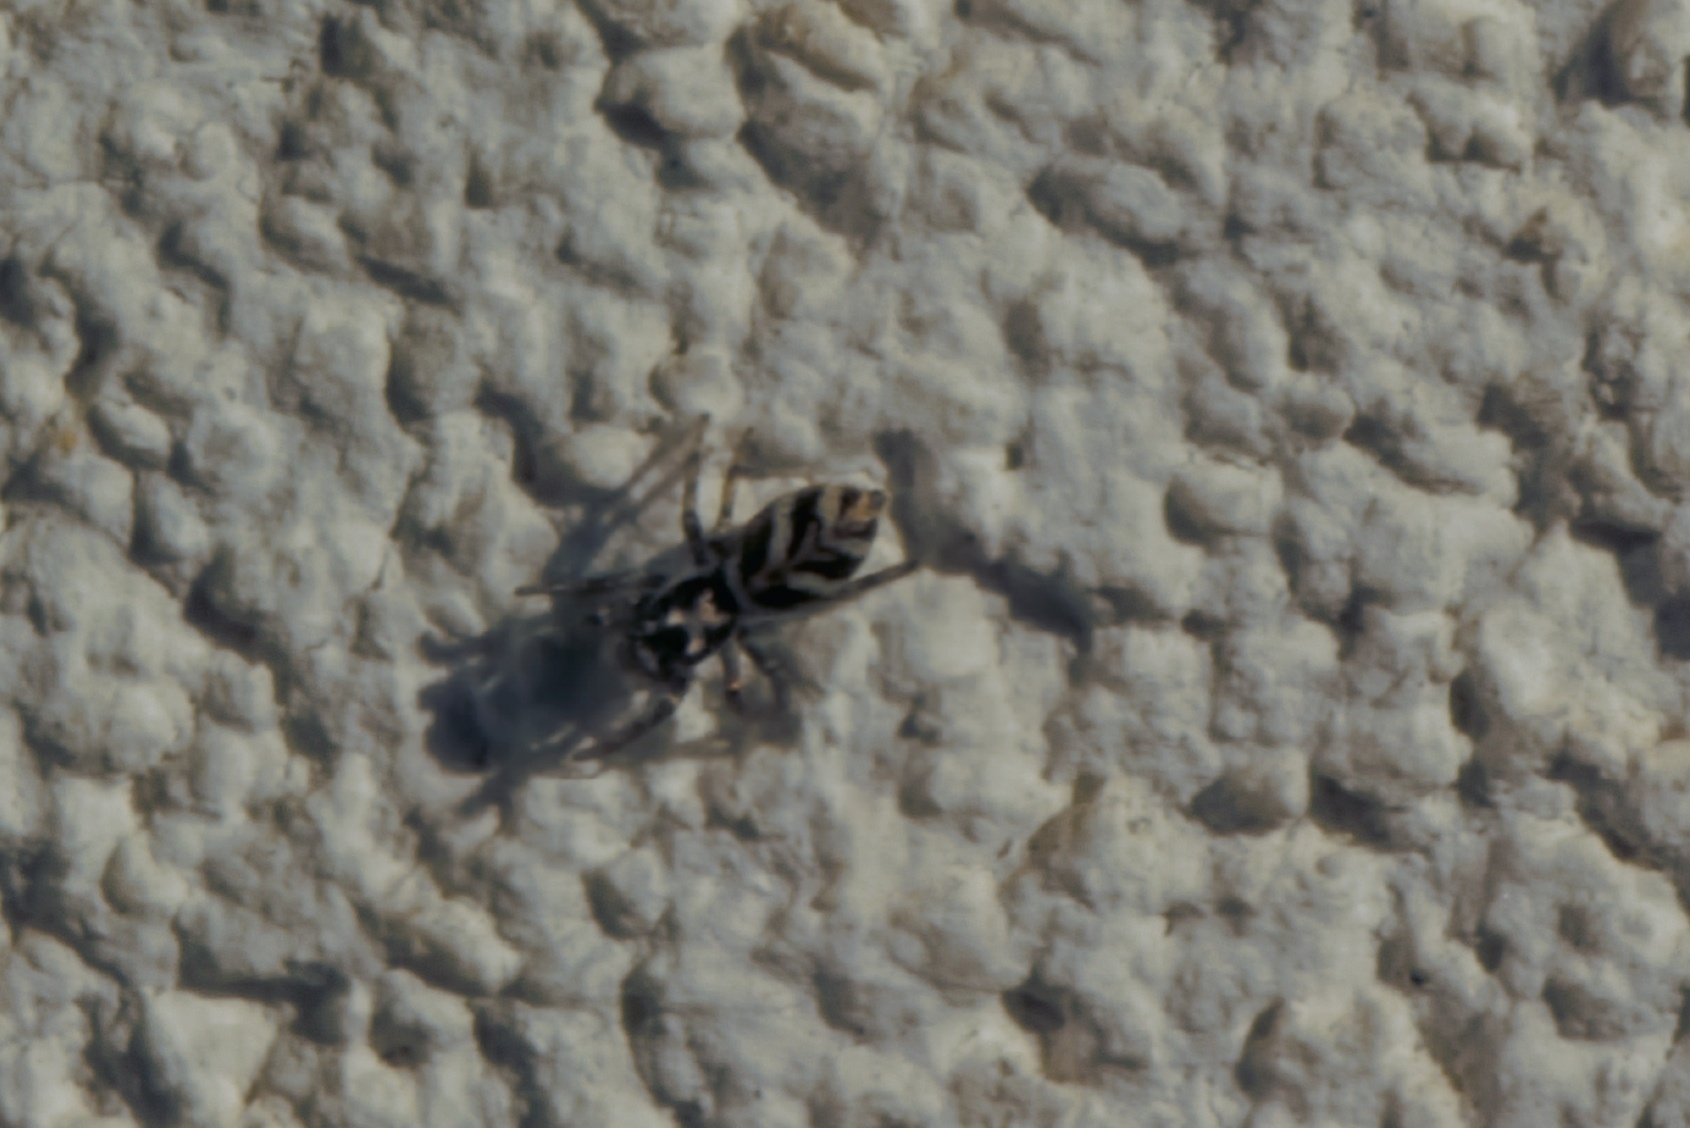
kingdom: Animalia
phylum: Arthropoda
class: Arachnida
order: Araneae
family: Salticidae
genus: Salticus
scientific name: Salticus scenicus
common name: Zebra jumper
